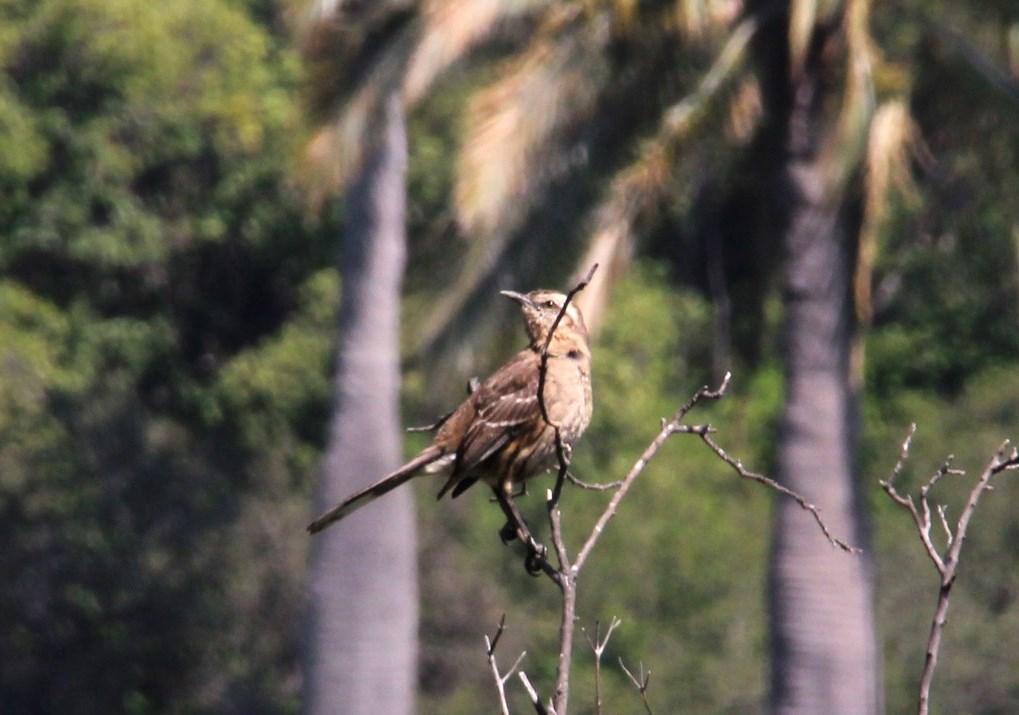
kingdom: Animalia
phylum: Chordata
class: Aves
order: Passeriformes
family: Mimidae
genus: Mimus
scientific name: Mimus thenca
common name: Chilean mockingbird
